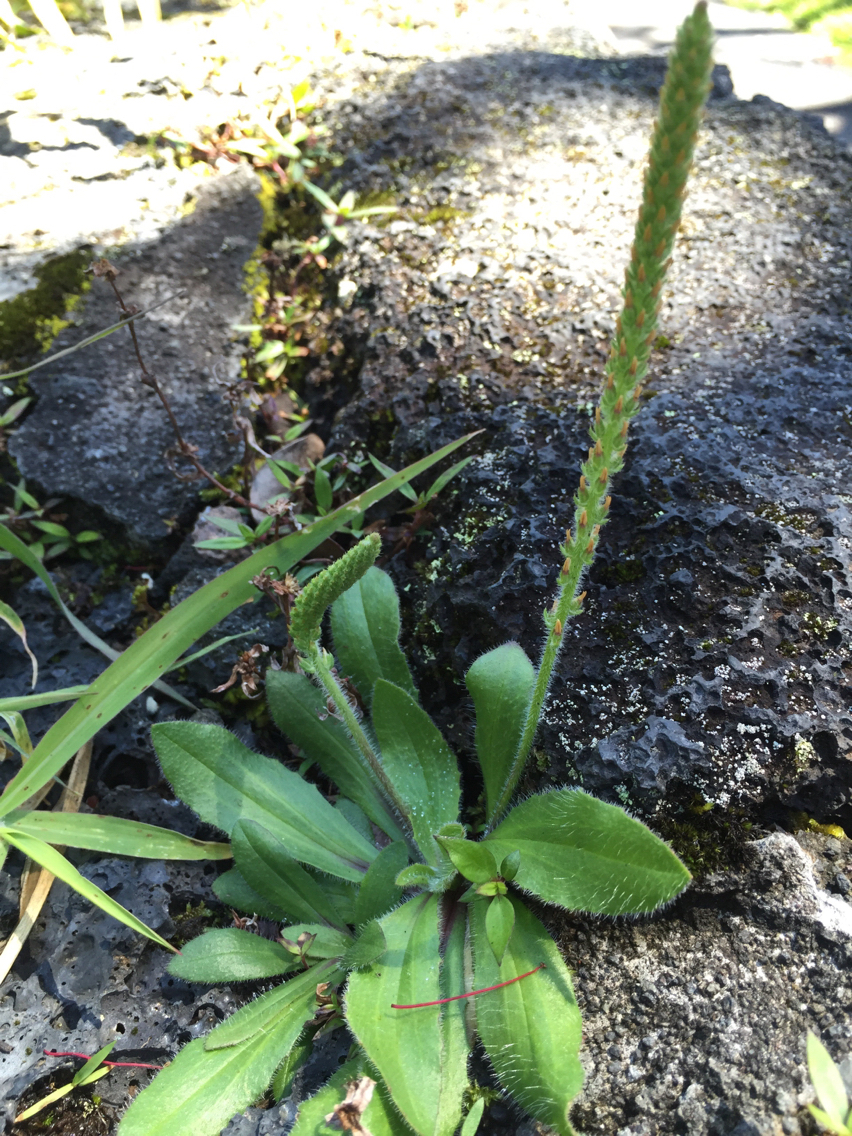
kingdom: Plantae
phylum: Tracheophyta
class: Magnoliopsida
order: Lamiales
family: Plantaginaceae
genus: Plantago
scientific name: Plantago debilis
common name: Weak plantain
